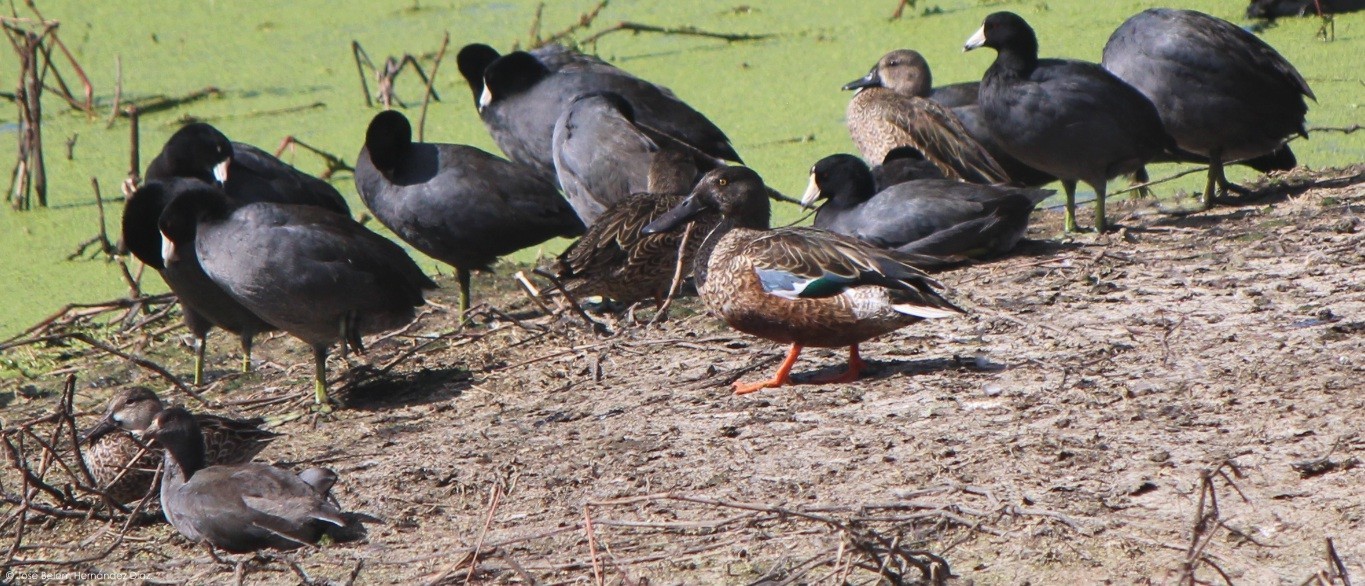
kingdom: Animalia
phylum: Chordata
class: Aves
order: Anseriformes
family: Anatidae
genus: Spatula
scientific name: Spatula clypeata
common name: Northern shoveler
